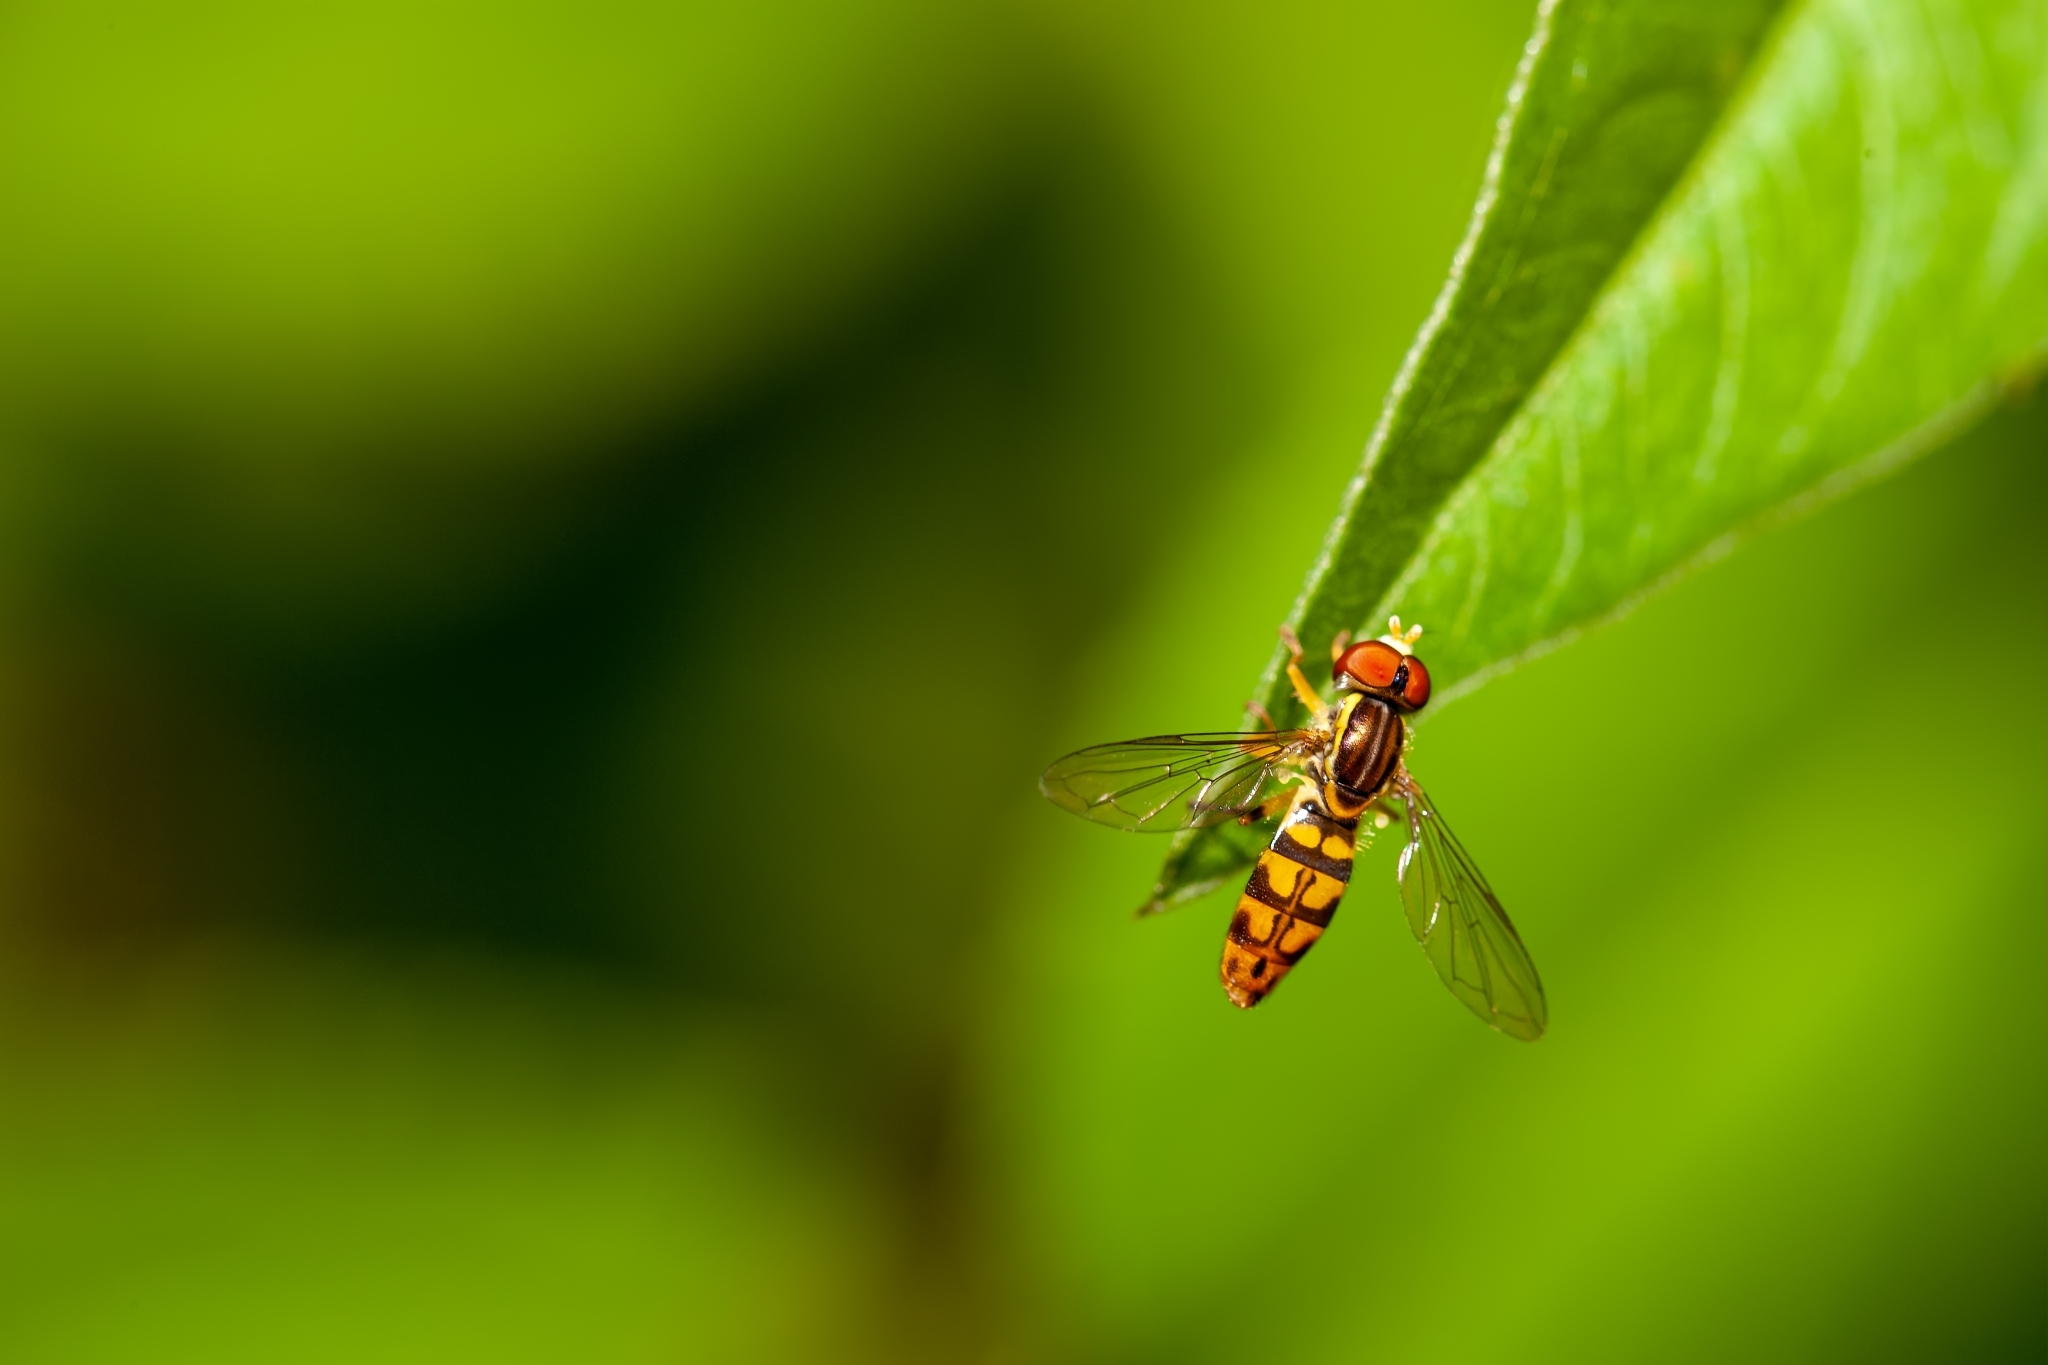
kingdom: Animalia
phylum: Arthropoda
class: Insecta
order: Diptera
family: Syrphidae
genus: Toxomerus
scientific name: Toxomerus floralis
